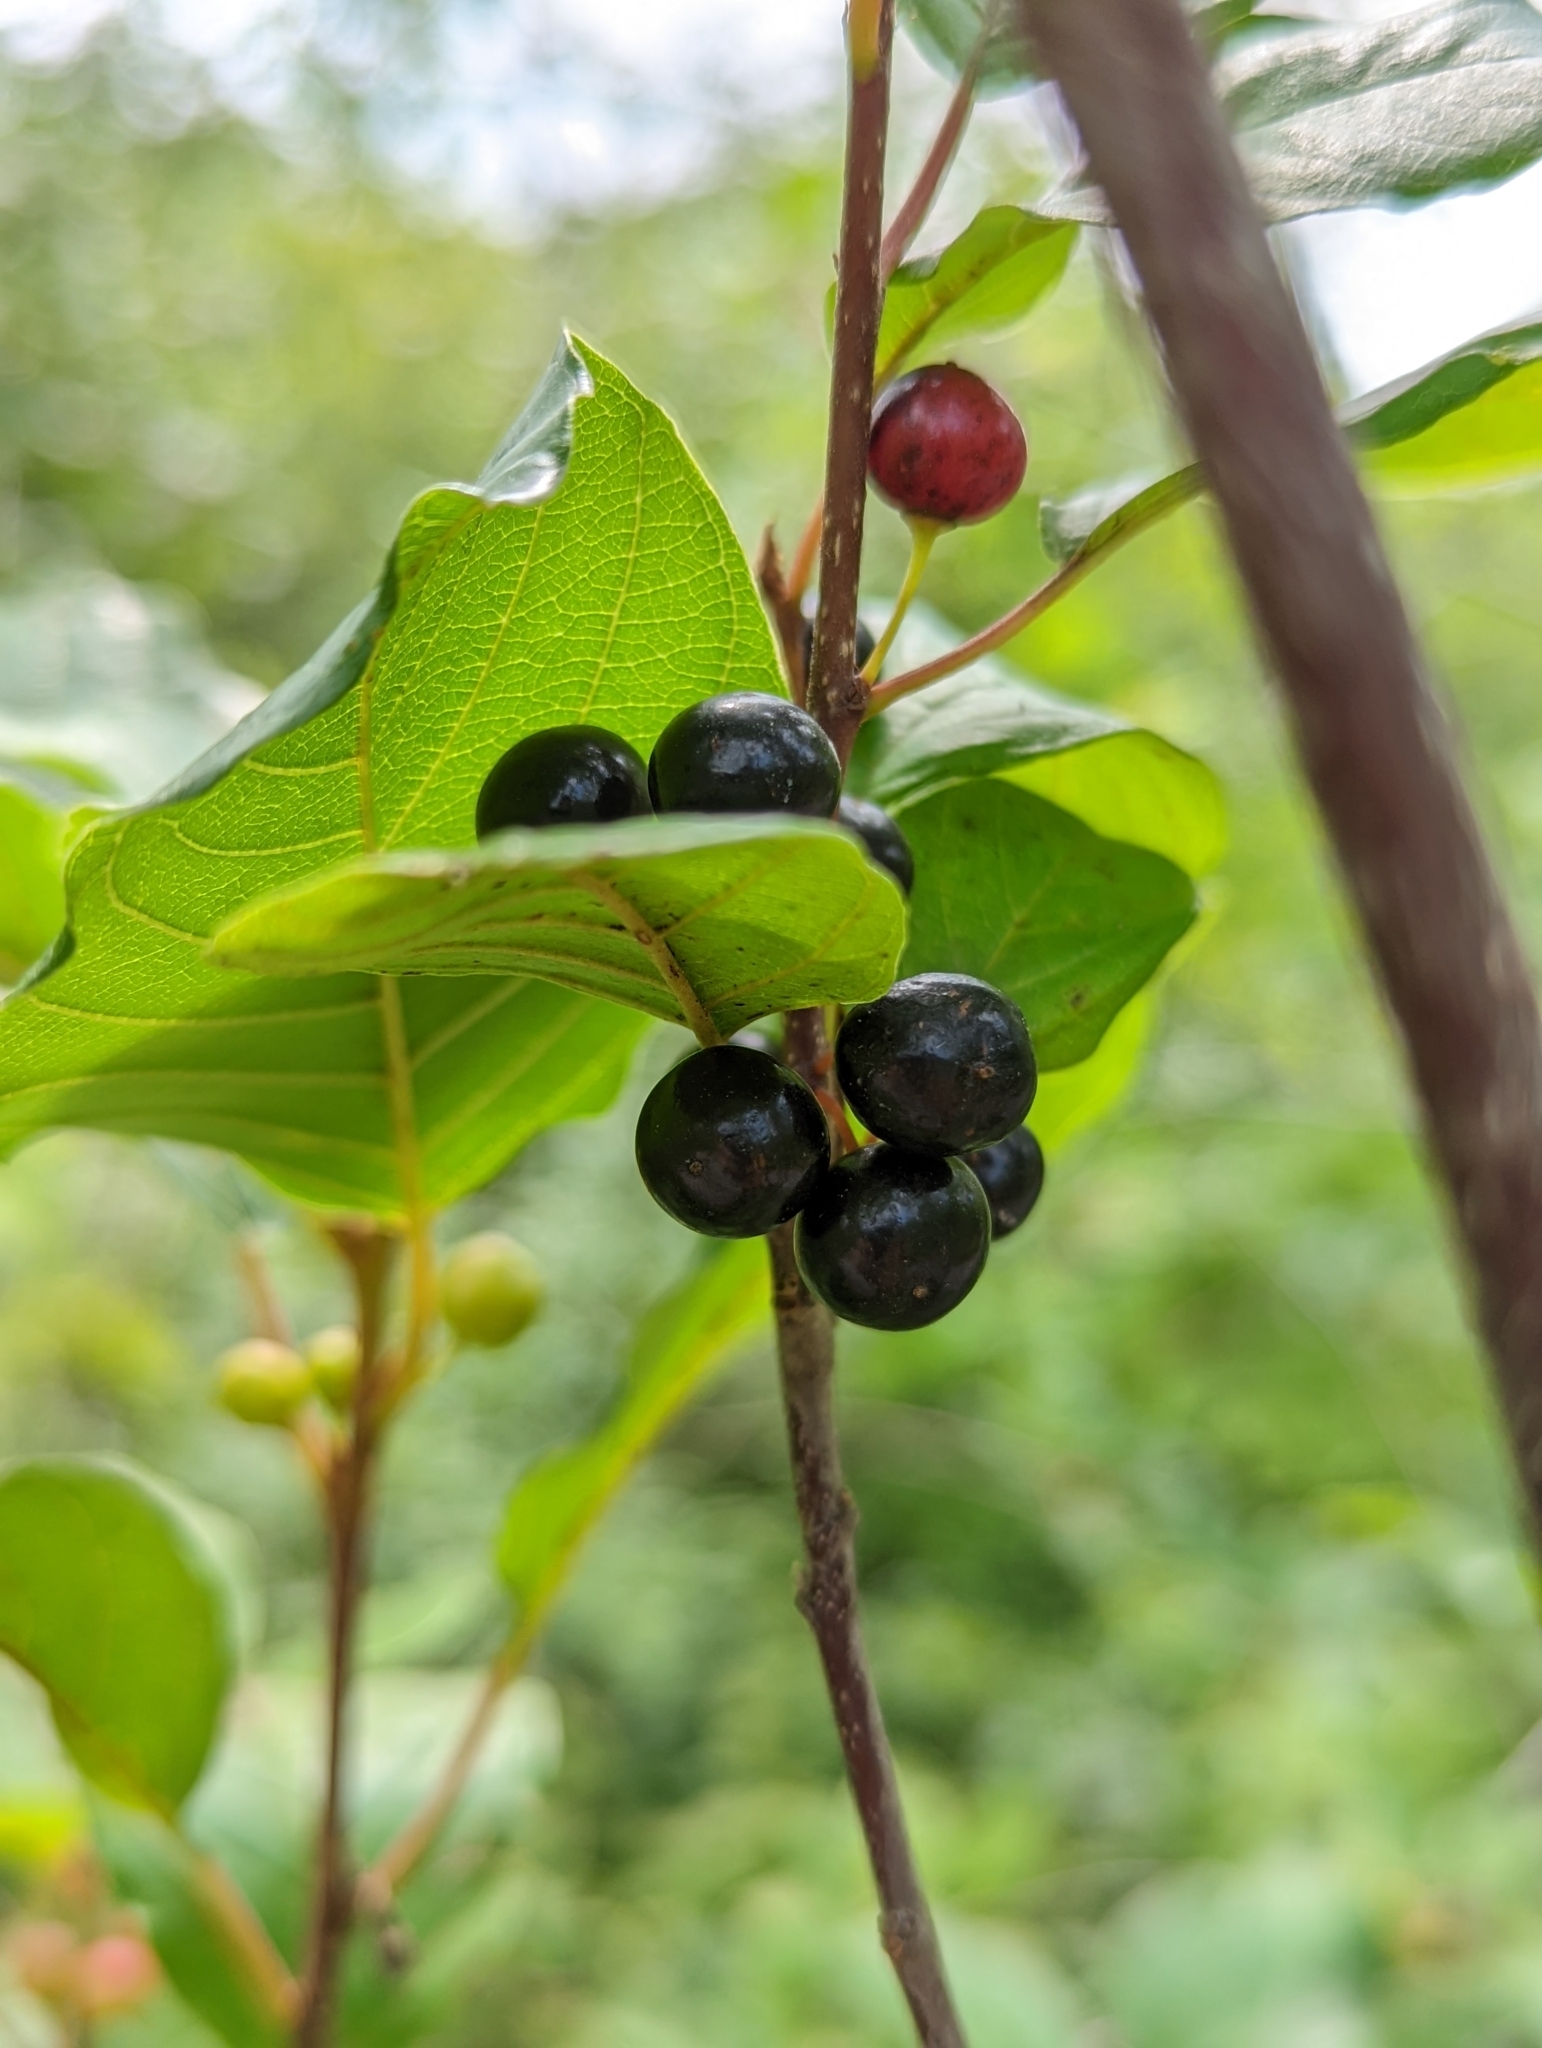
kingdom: Plantae
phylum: Tracheophyta
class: Magnoliopsida
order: Rosales
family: Rhamnaceae
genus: Frangula
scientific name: Frangula alnus
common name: Alder buckthorn
